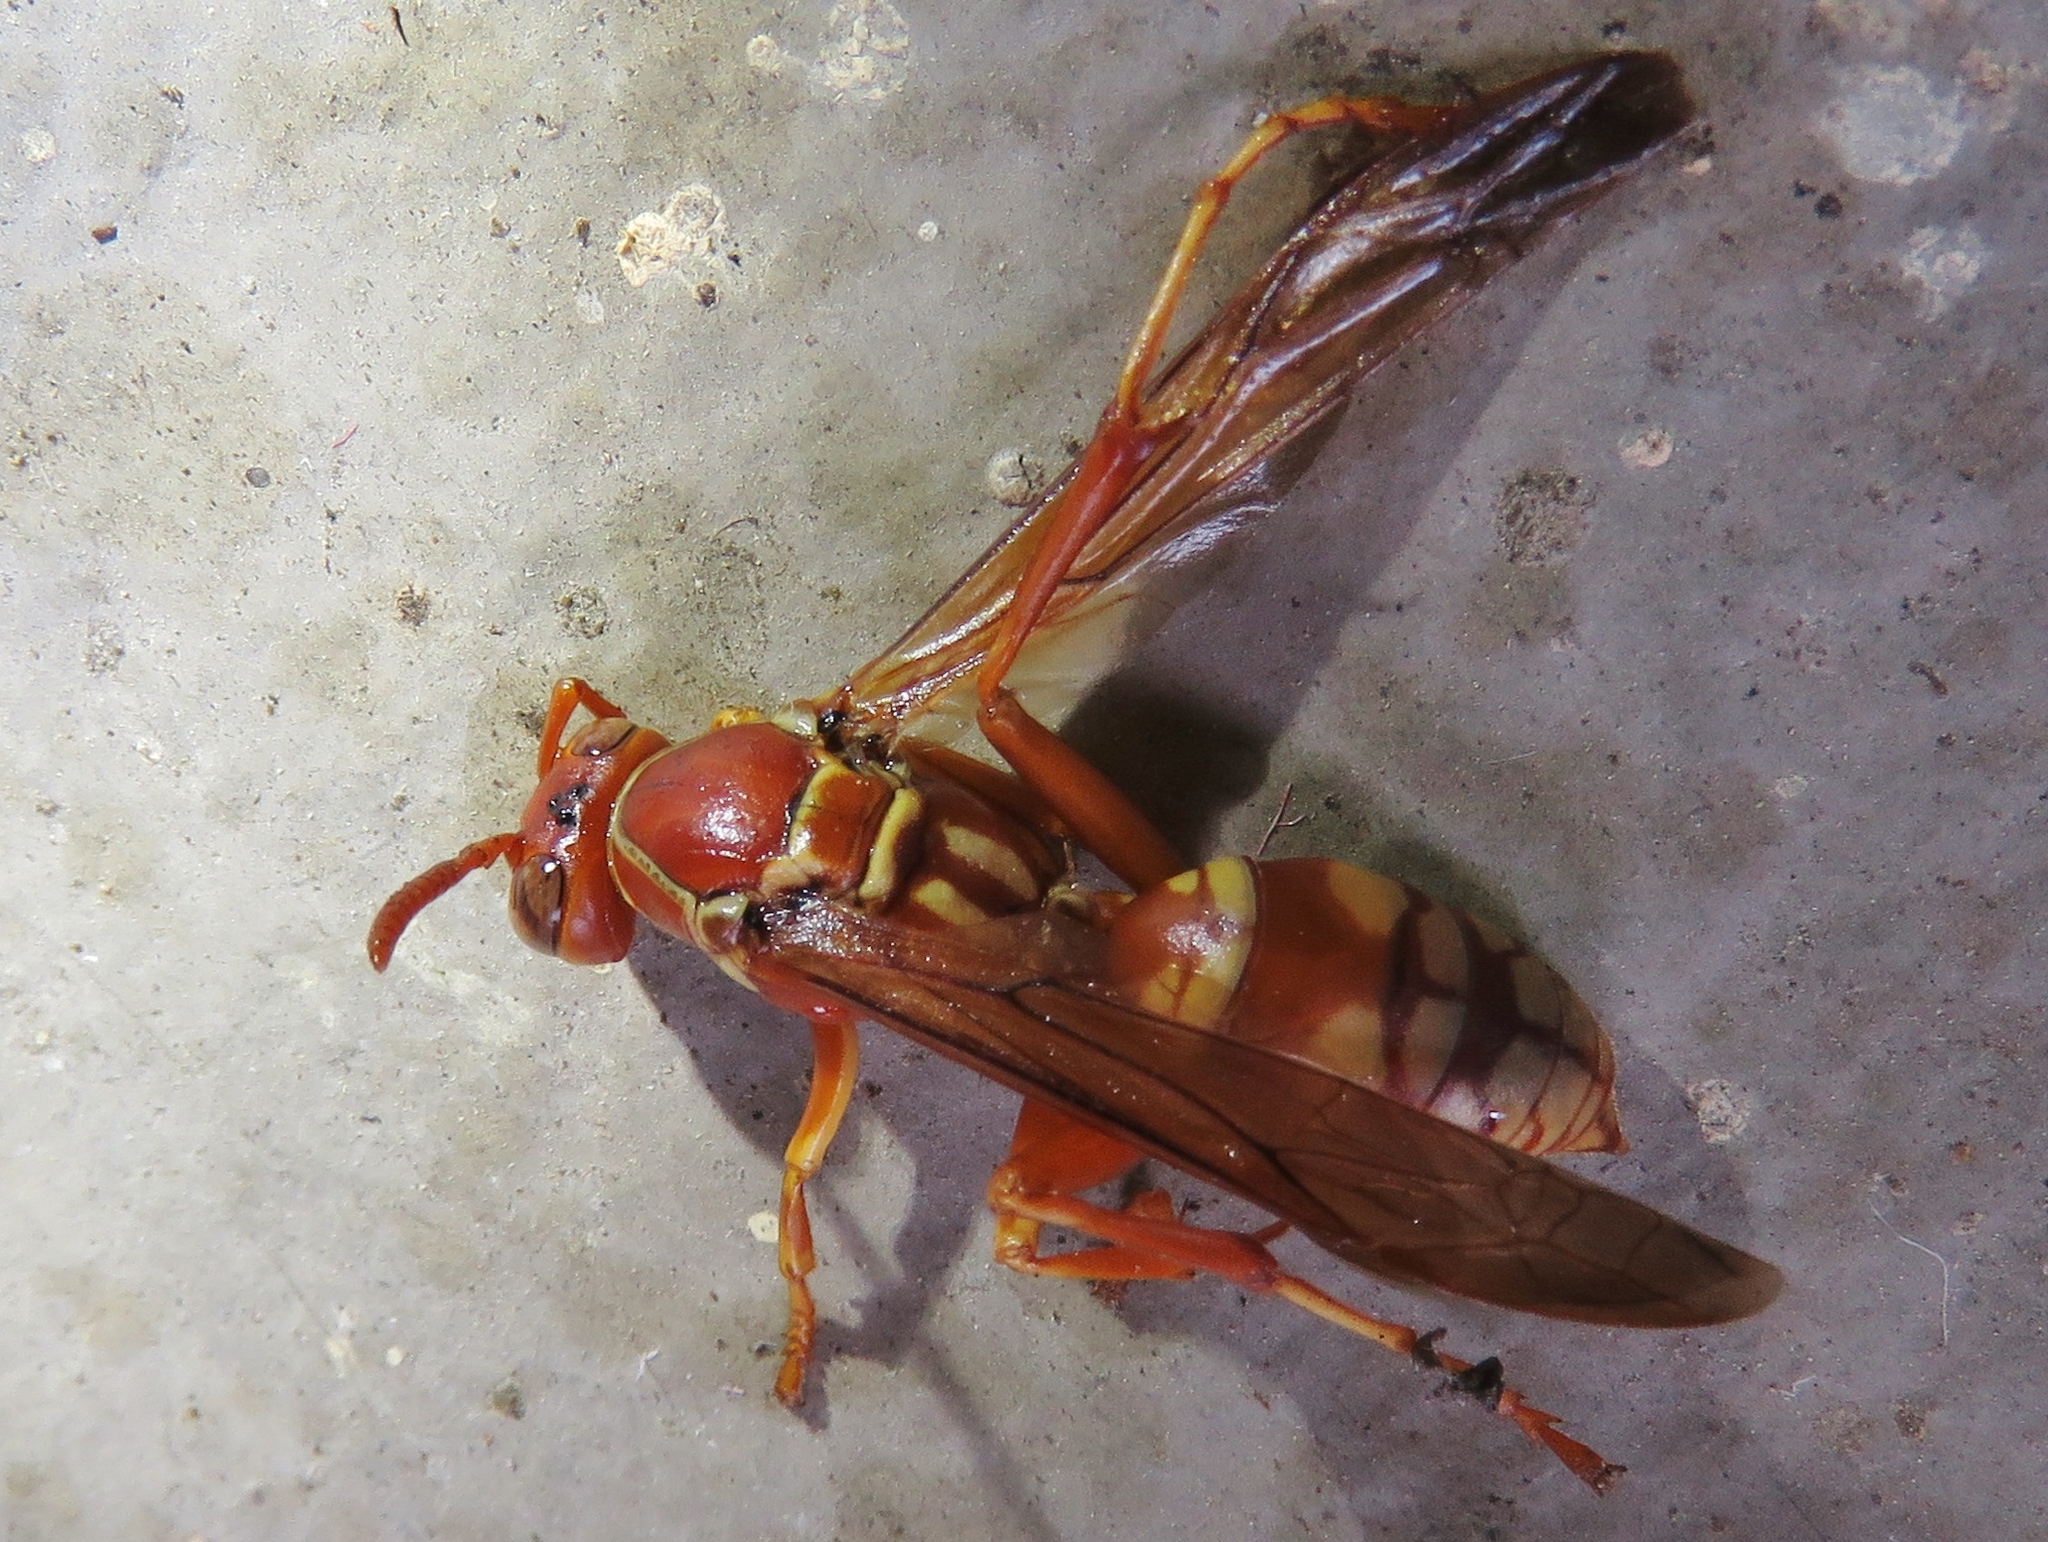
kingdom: Animalia
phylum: Arthropoda
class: Insecta
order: Hymenoptera
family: Eumenidae
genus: Polistes
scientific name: Polistes apachus
